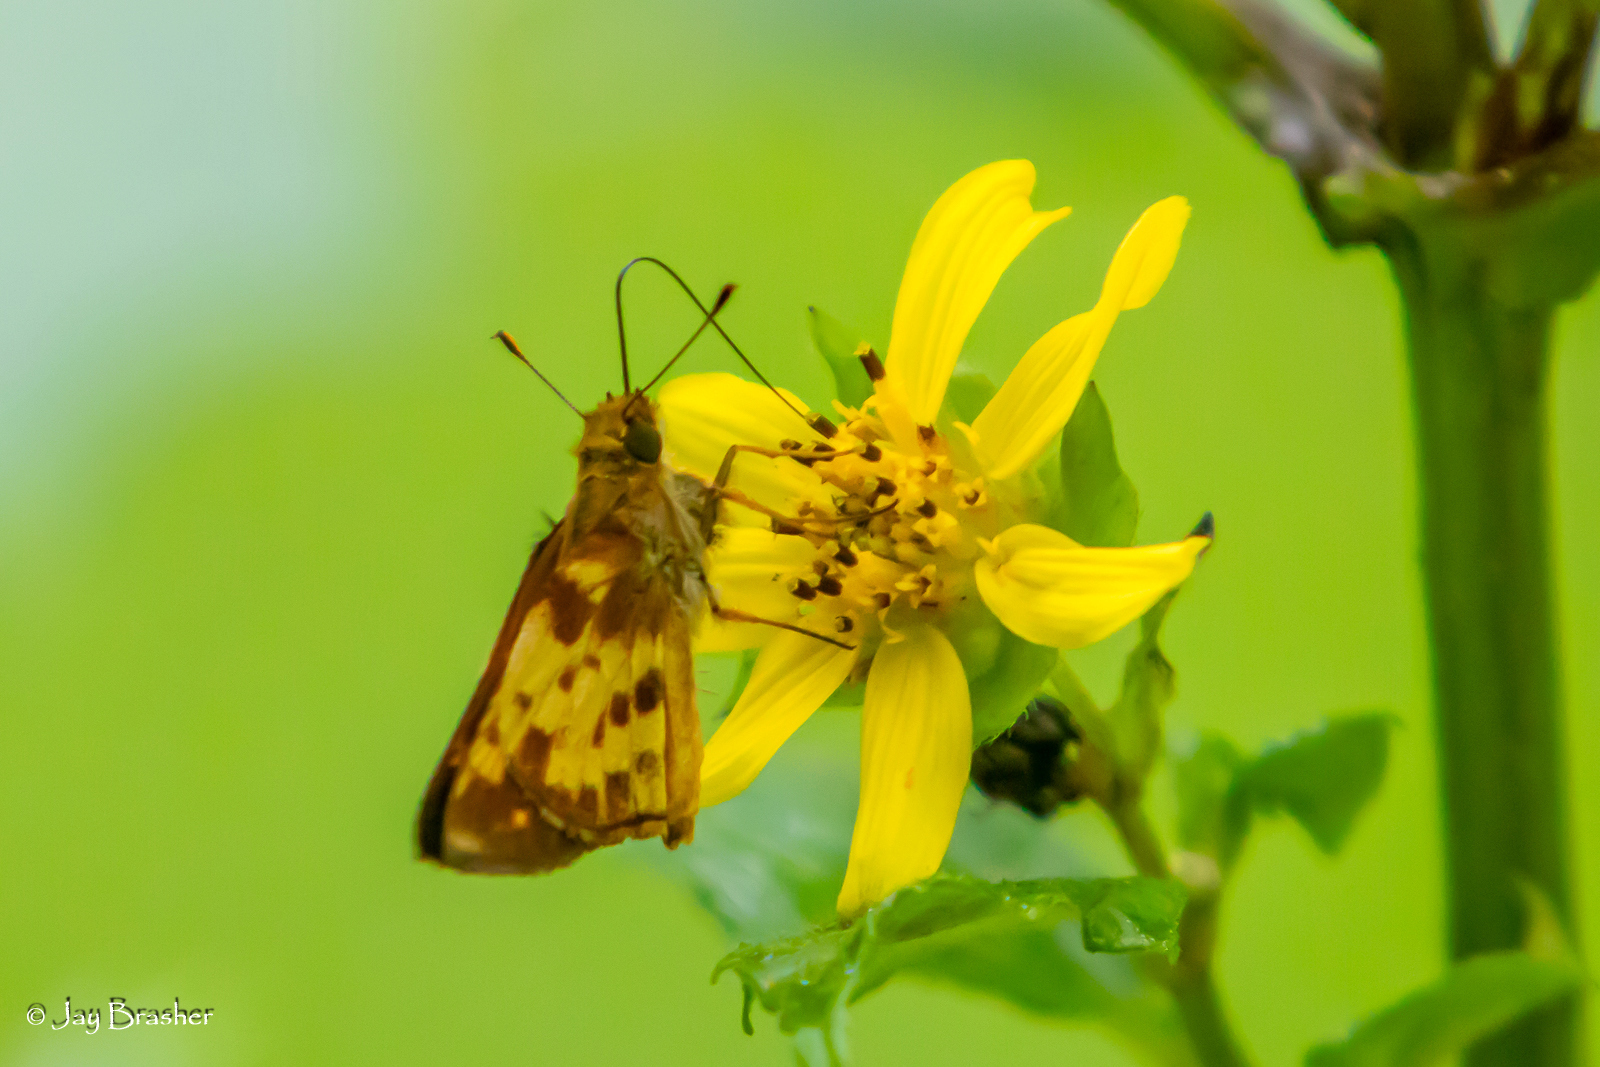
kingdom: Animalia
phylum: Arthropoda
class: Insecta
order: Lepidoptera
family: Hesperiidae
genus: Lon
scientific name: Lon zabulon
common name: Zabulon skipper
